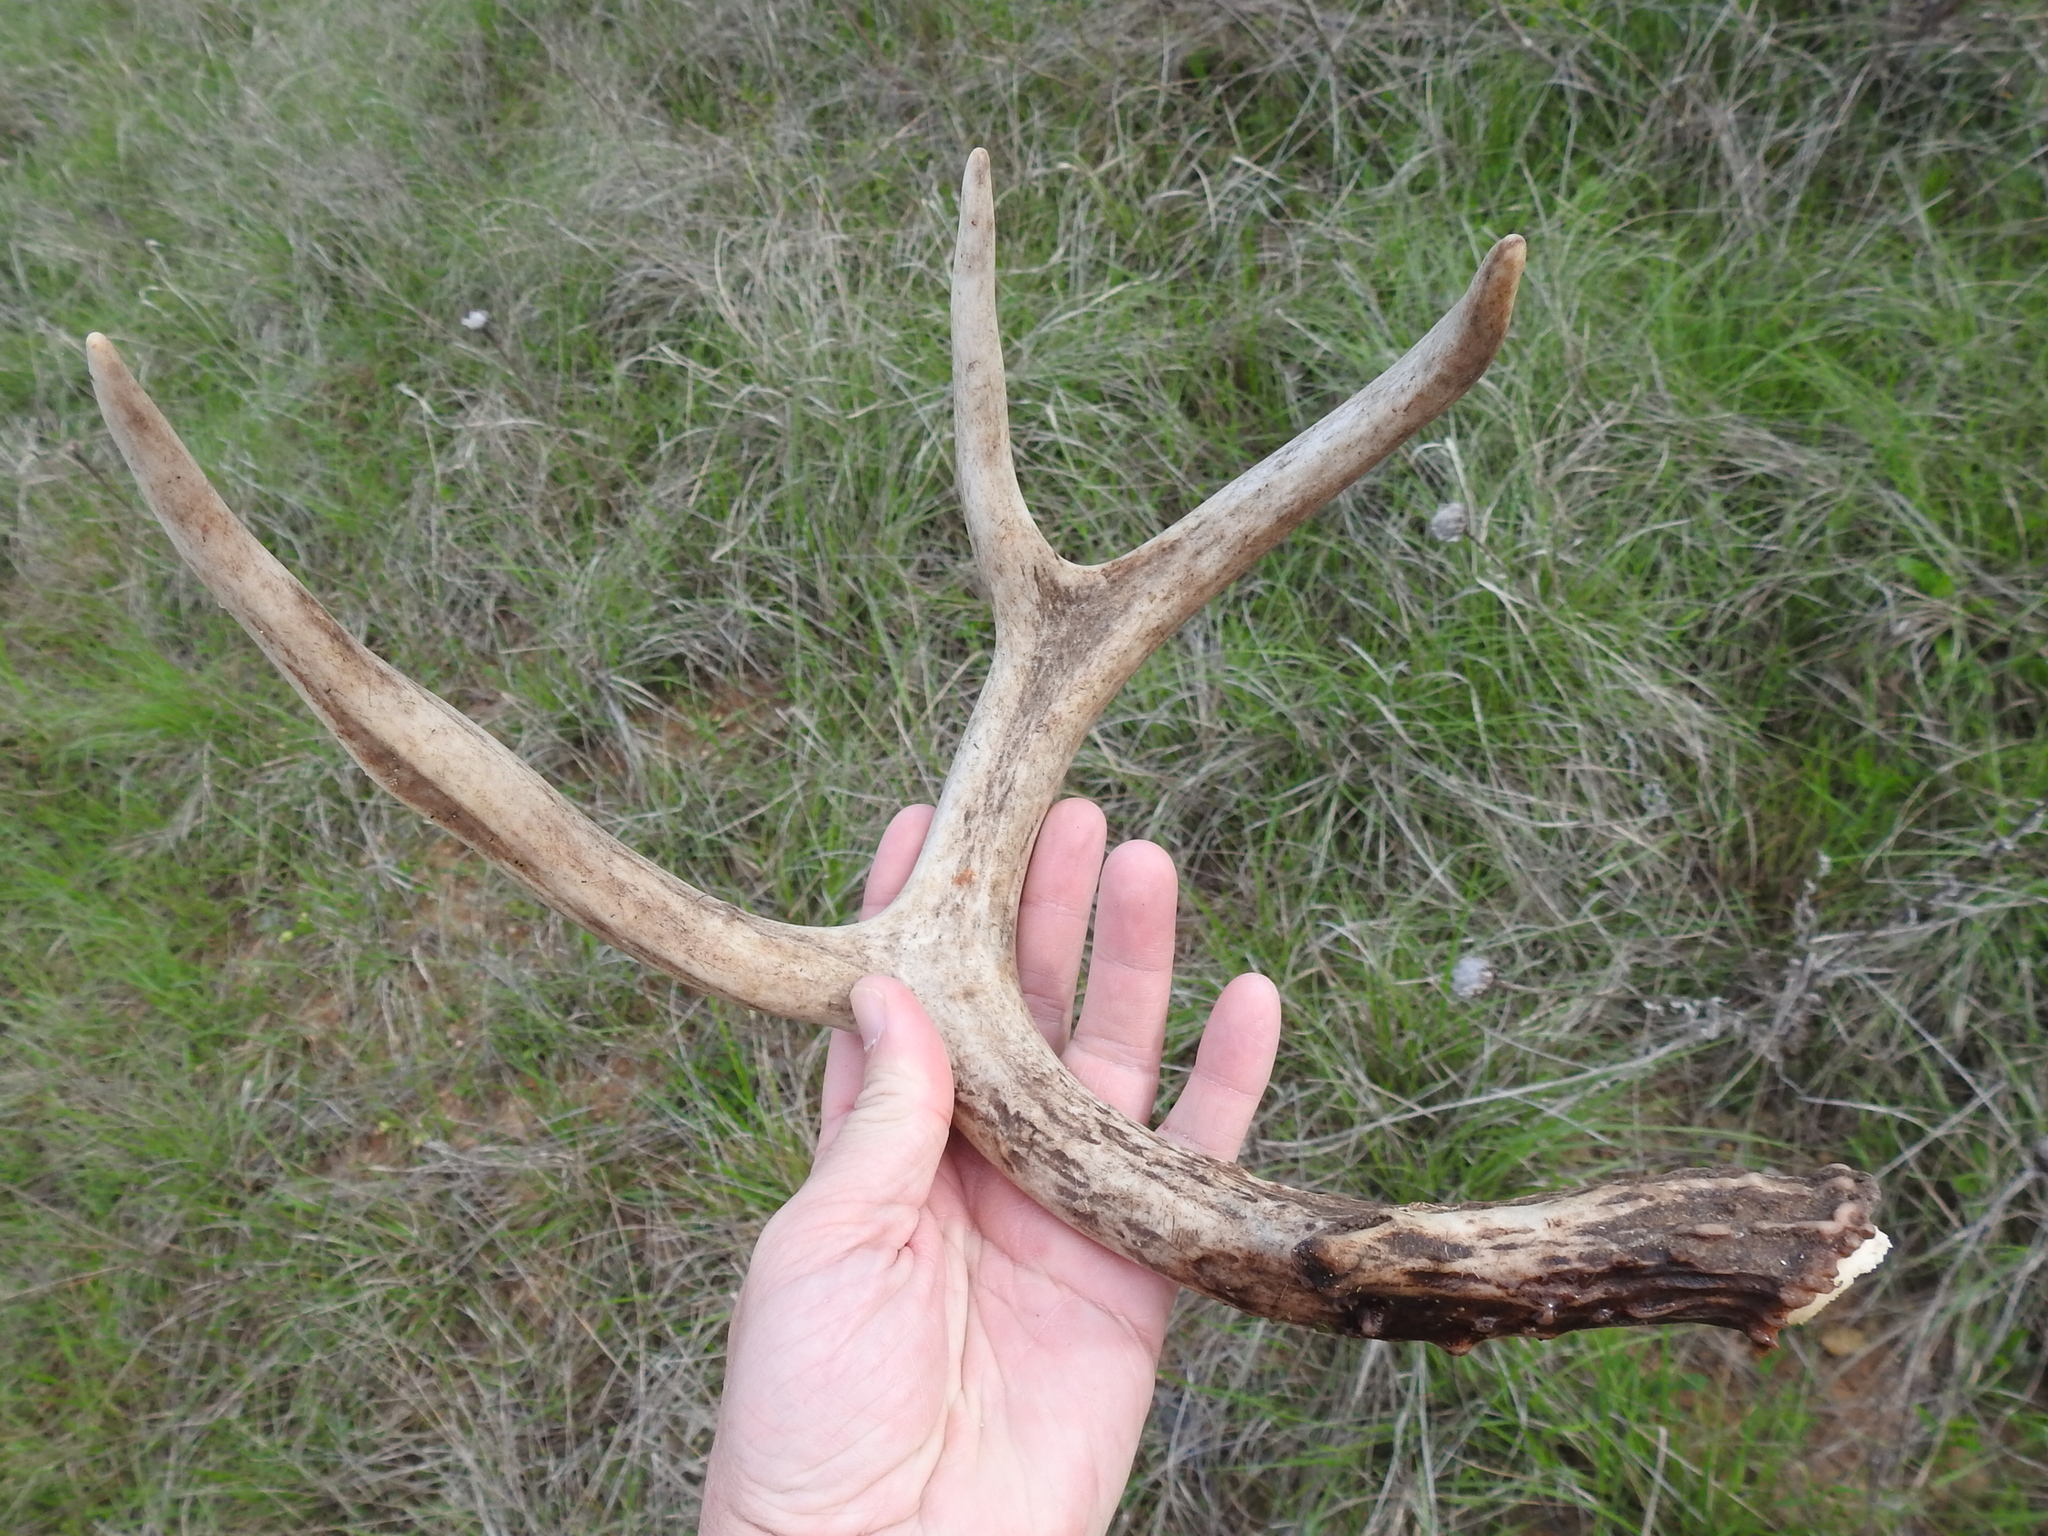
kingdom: Animalia
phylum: Chordata
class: Mammalia
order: Artiodactyla
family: Cervidae
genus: Odocoileus
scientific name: Odocoileus virginianus
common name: White-tailed deer
